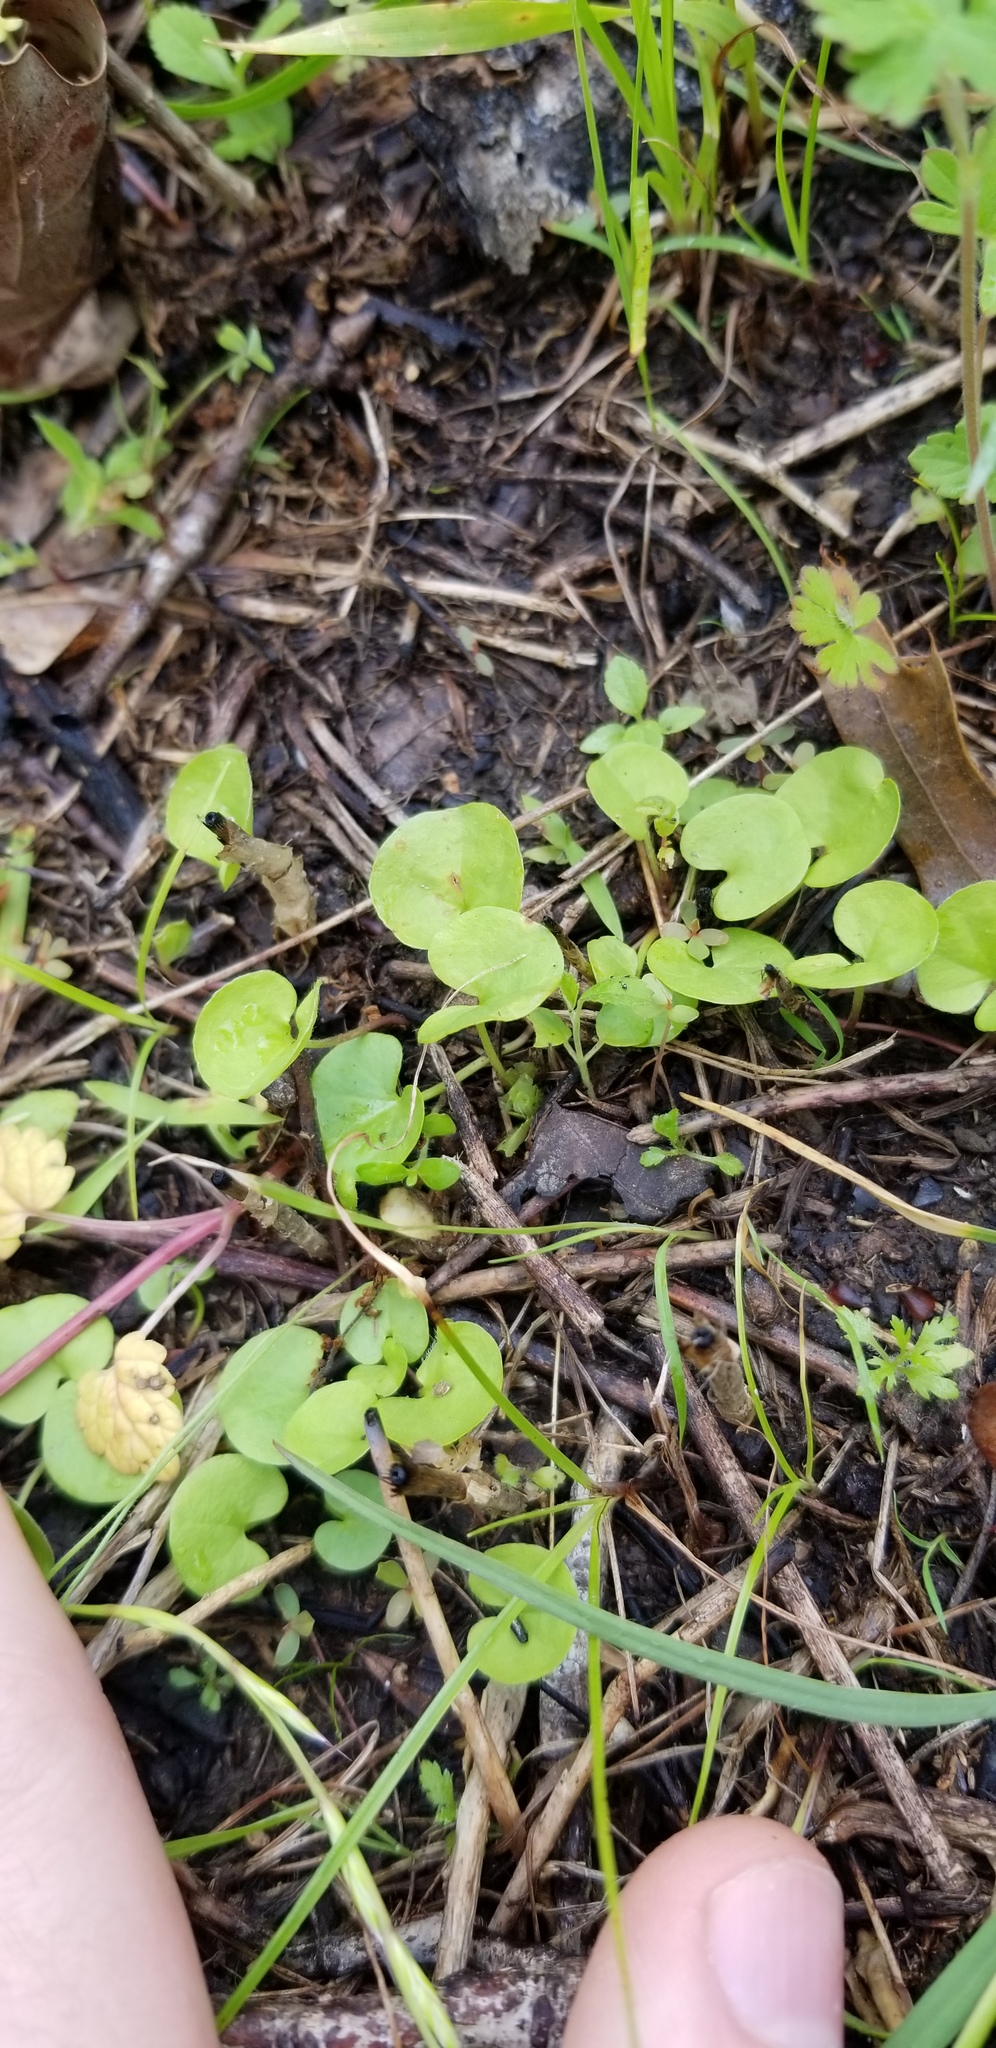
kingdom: Plantae
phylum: Tracheophyta
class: Magnoliopsida
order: Solanales
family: Convolvulaceae
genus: Dichondra
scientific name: Dichondra carolinensis
